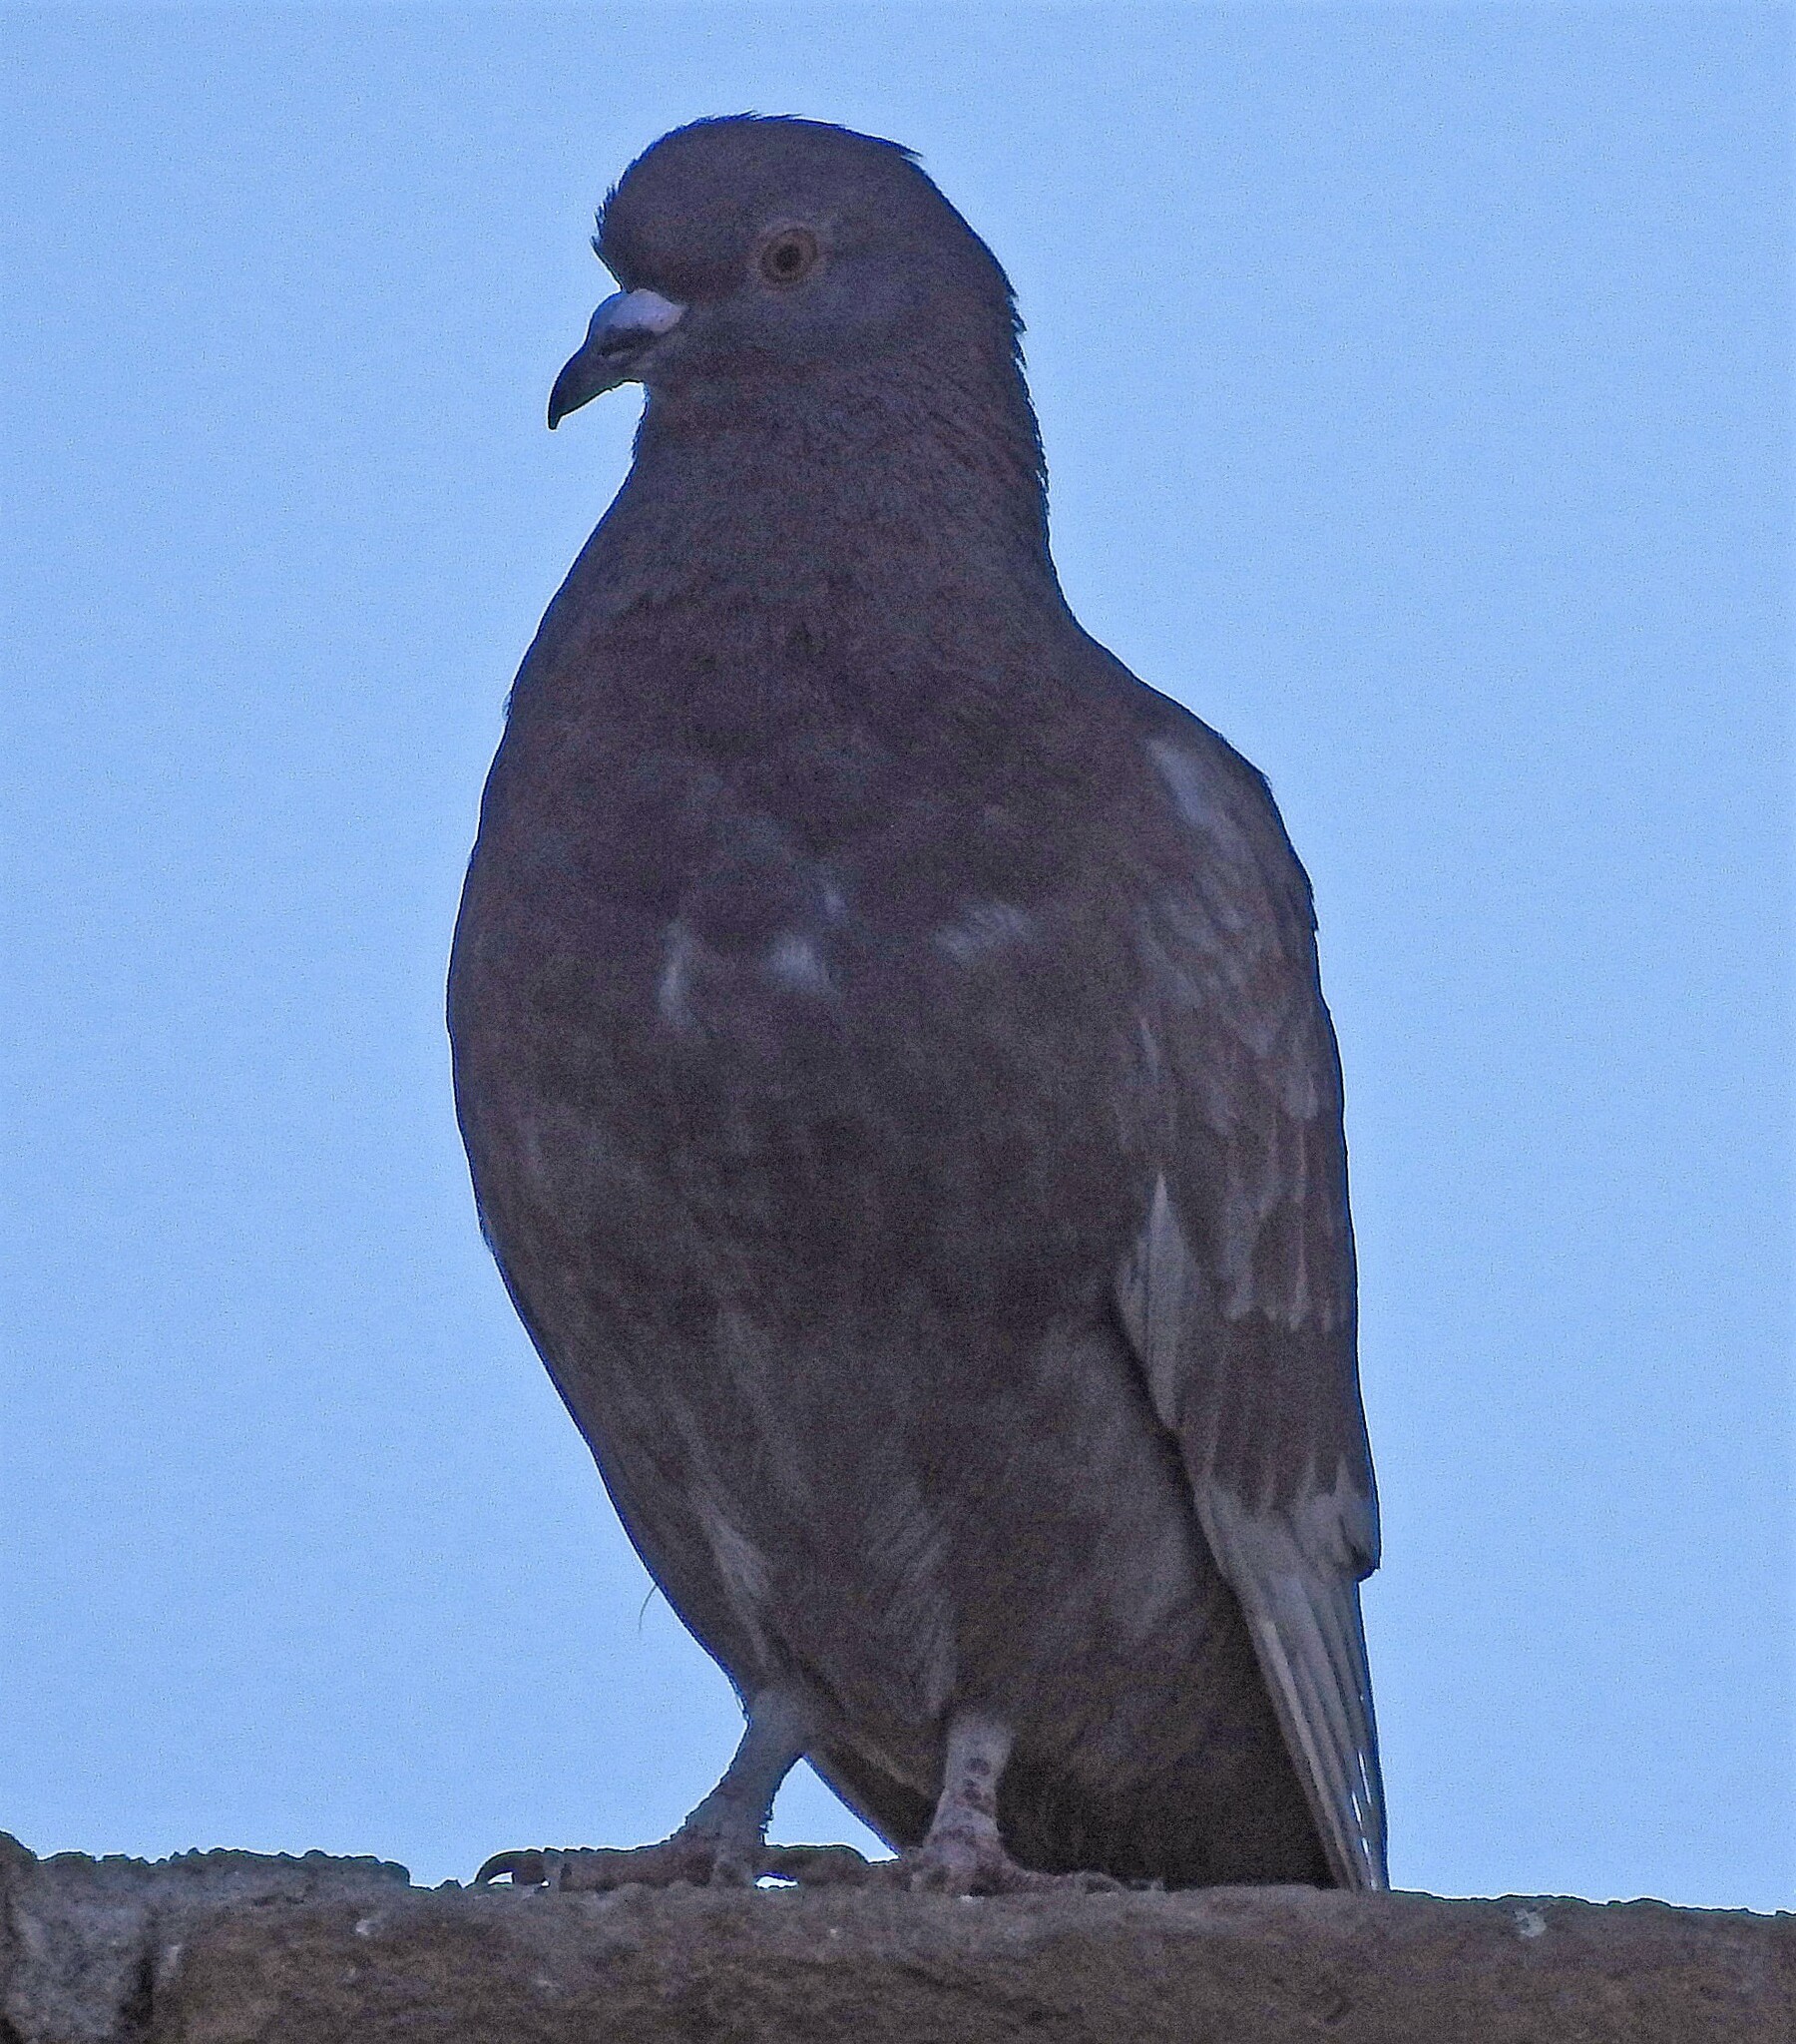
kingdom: Animalia
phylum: Chordata
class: Aves
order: Columbiformes
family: Columbidae
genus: Columba
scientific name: Columba livia
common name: Rock pigeon
